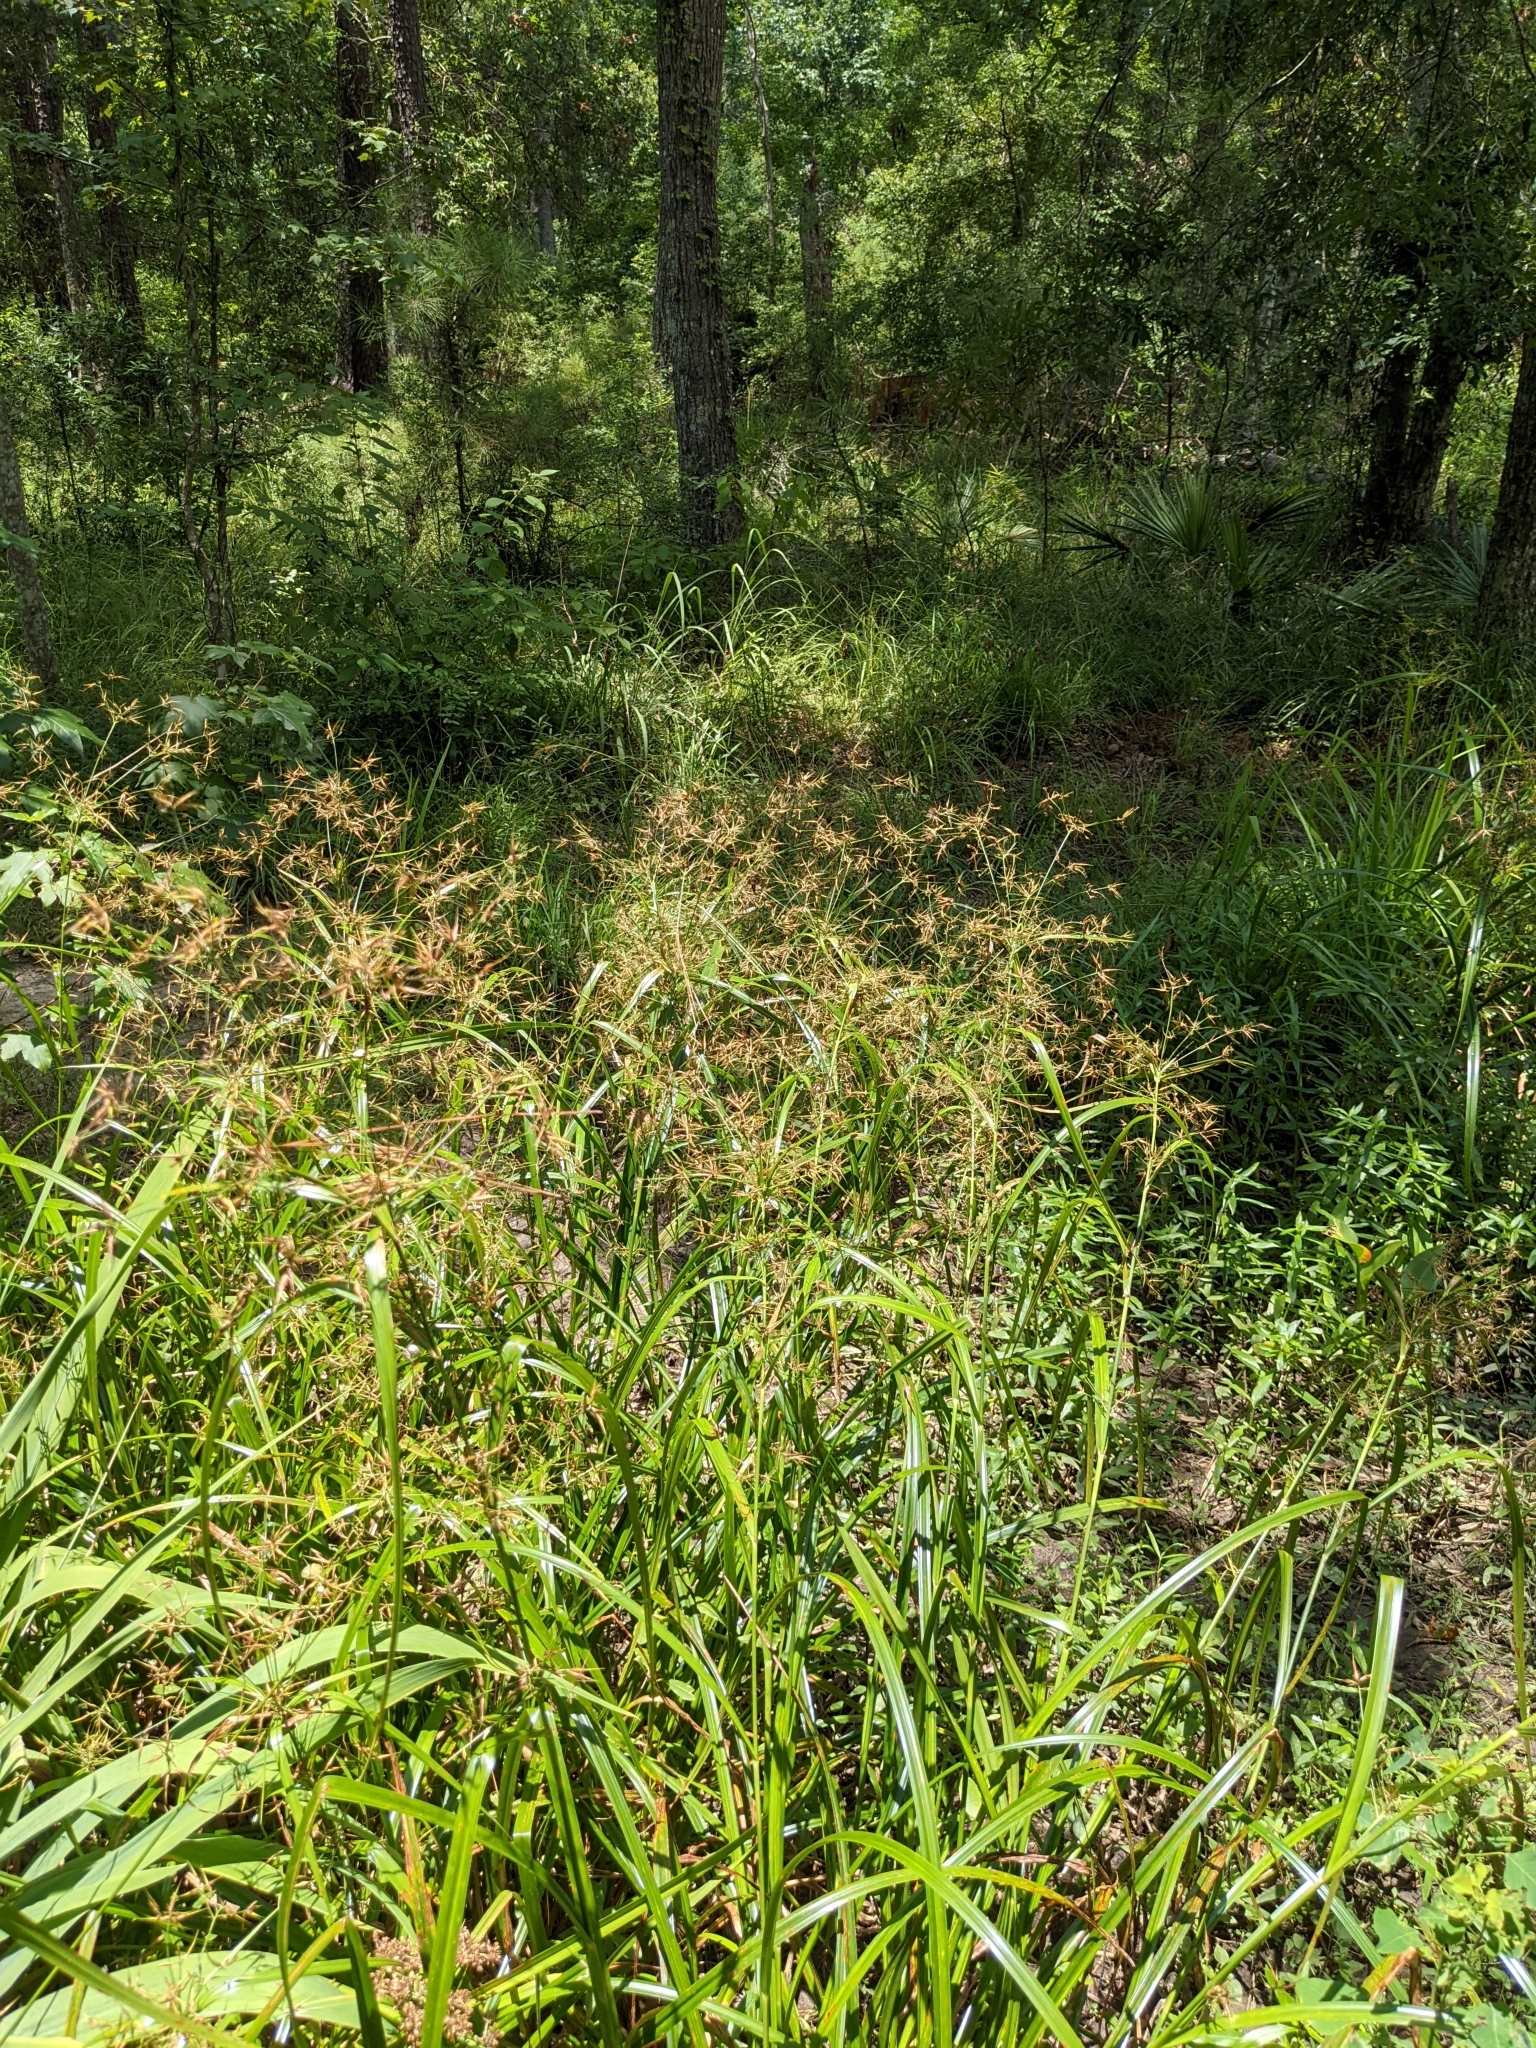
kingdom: Plantae
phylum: Tracheophyta
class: Liliopsida
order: Poales
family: Cyperaceae
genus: Rhynchospora
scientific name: Rhynchospora corniculata
